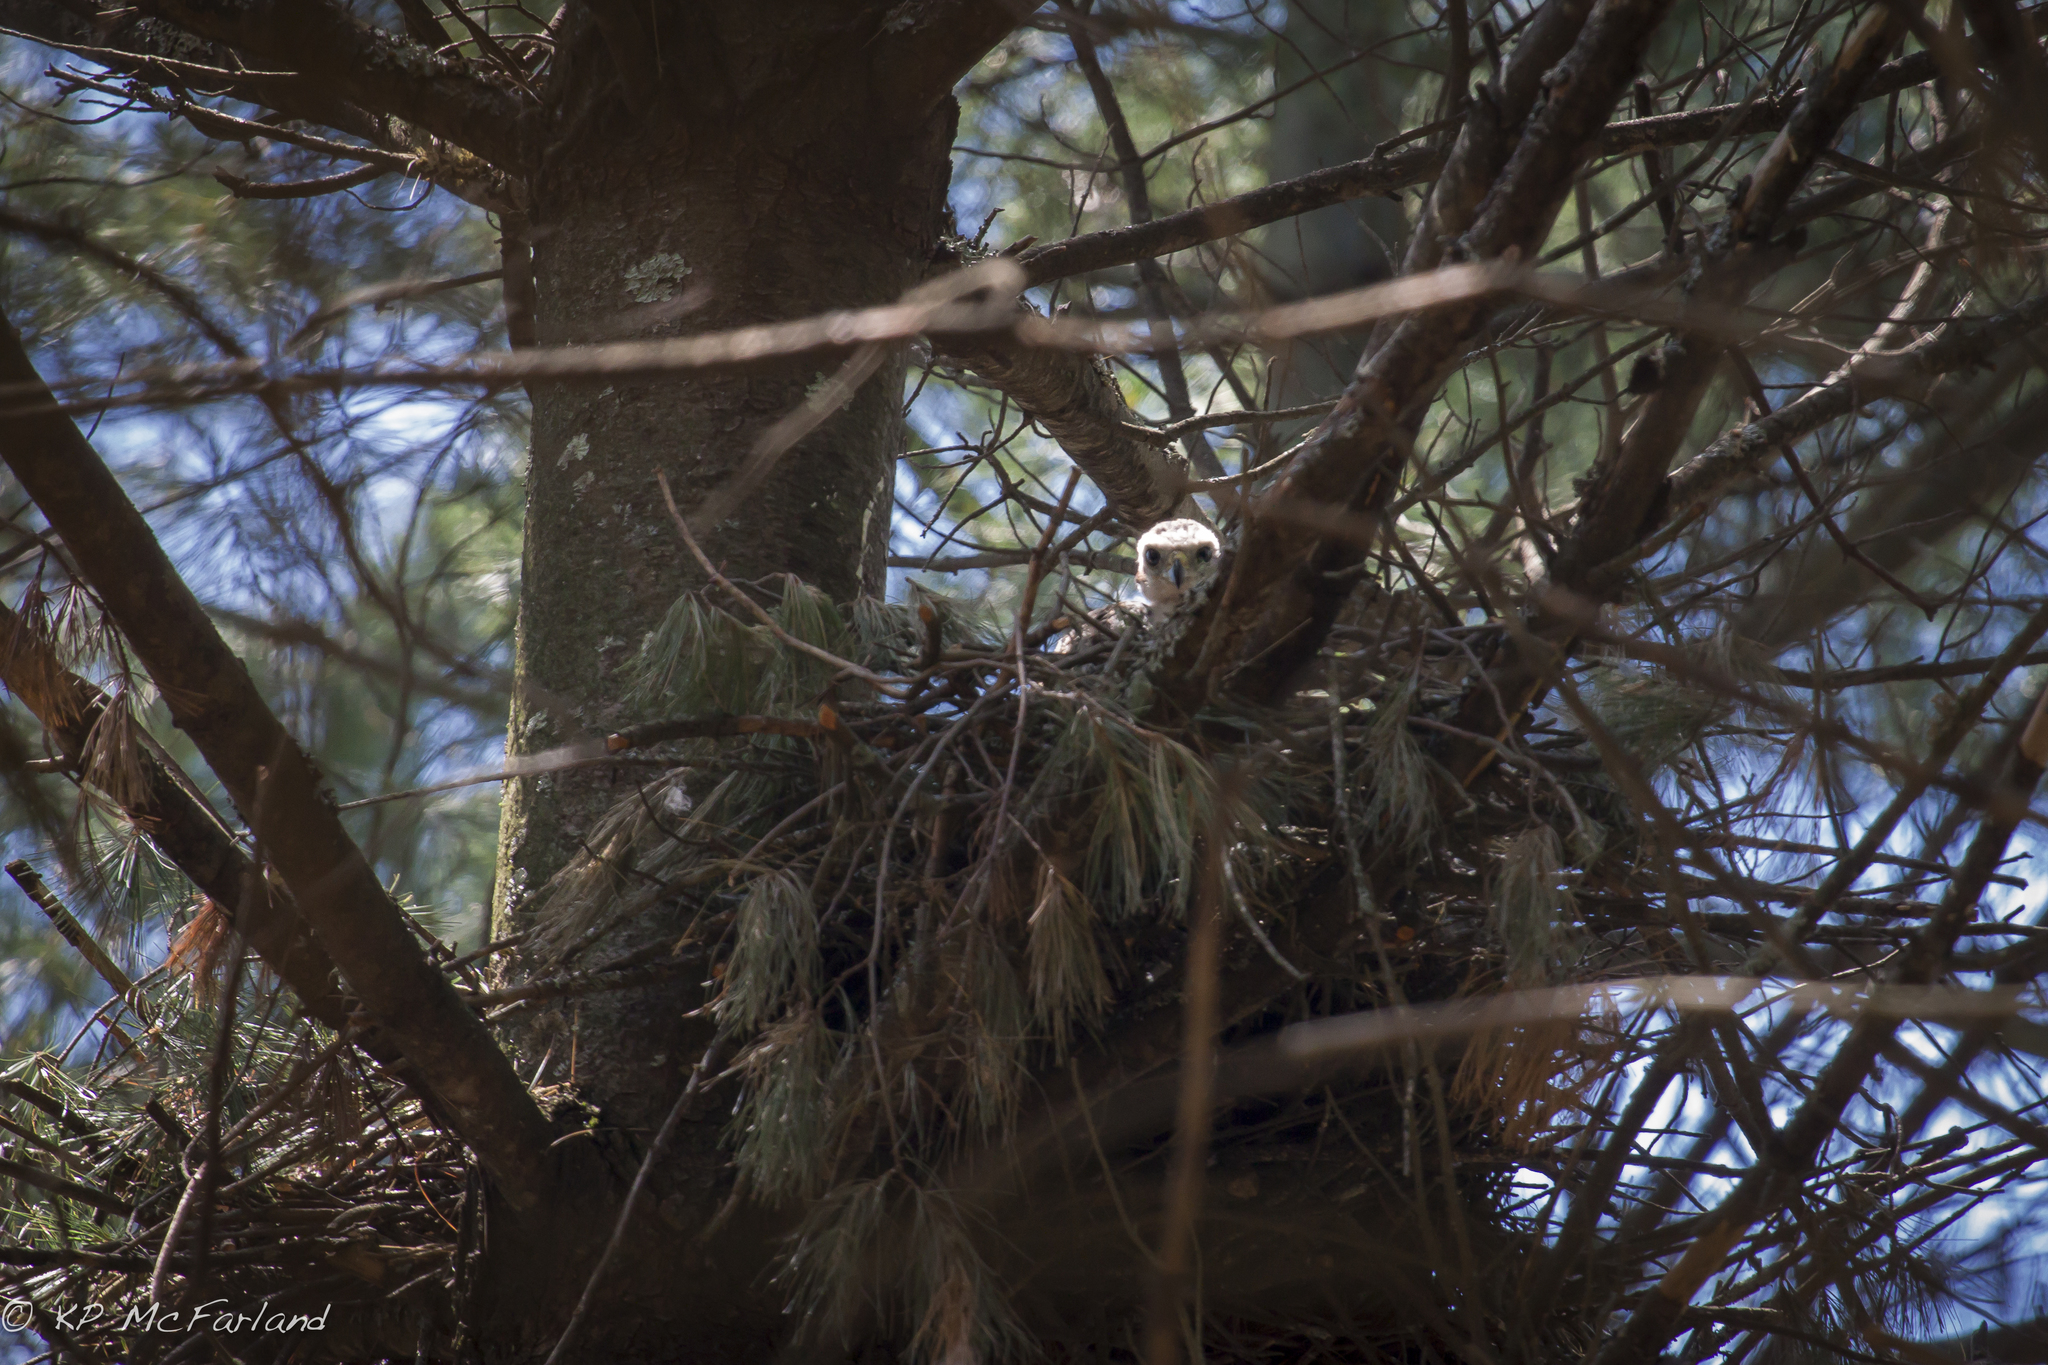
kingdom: Animalia
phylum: Chordata
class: Aves
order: Accipitriformes
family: Accipitridae
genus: Accipiter
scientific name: Accipiter gentilis
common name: Northern goshawk
